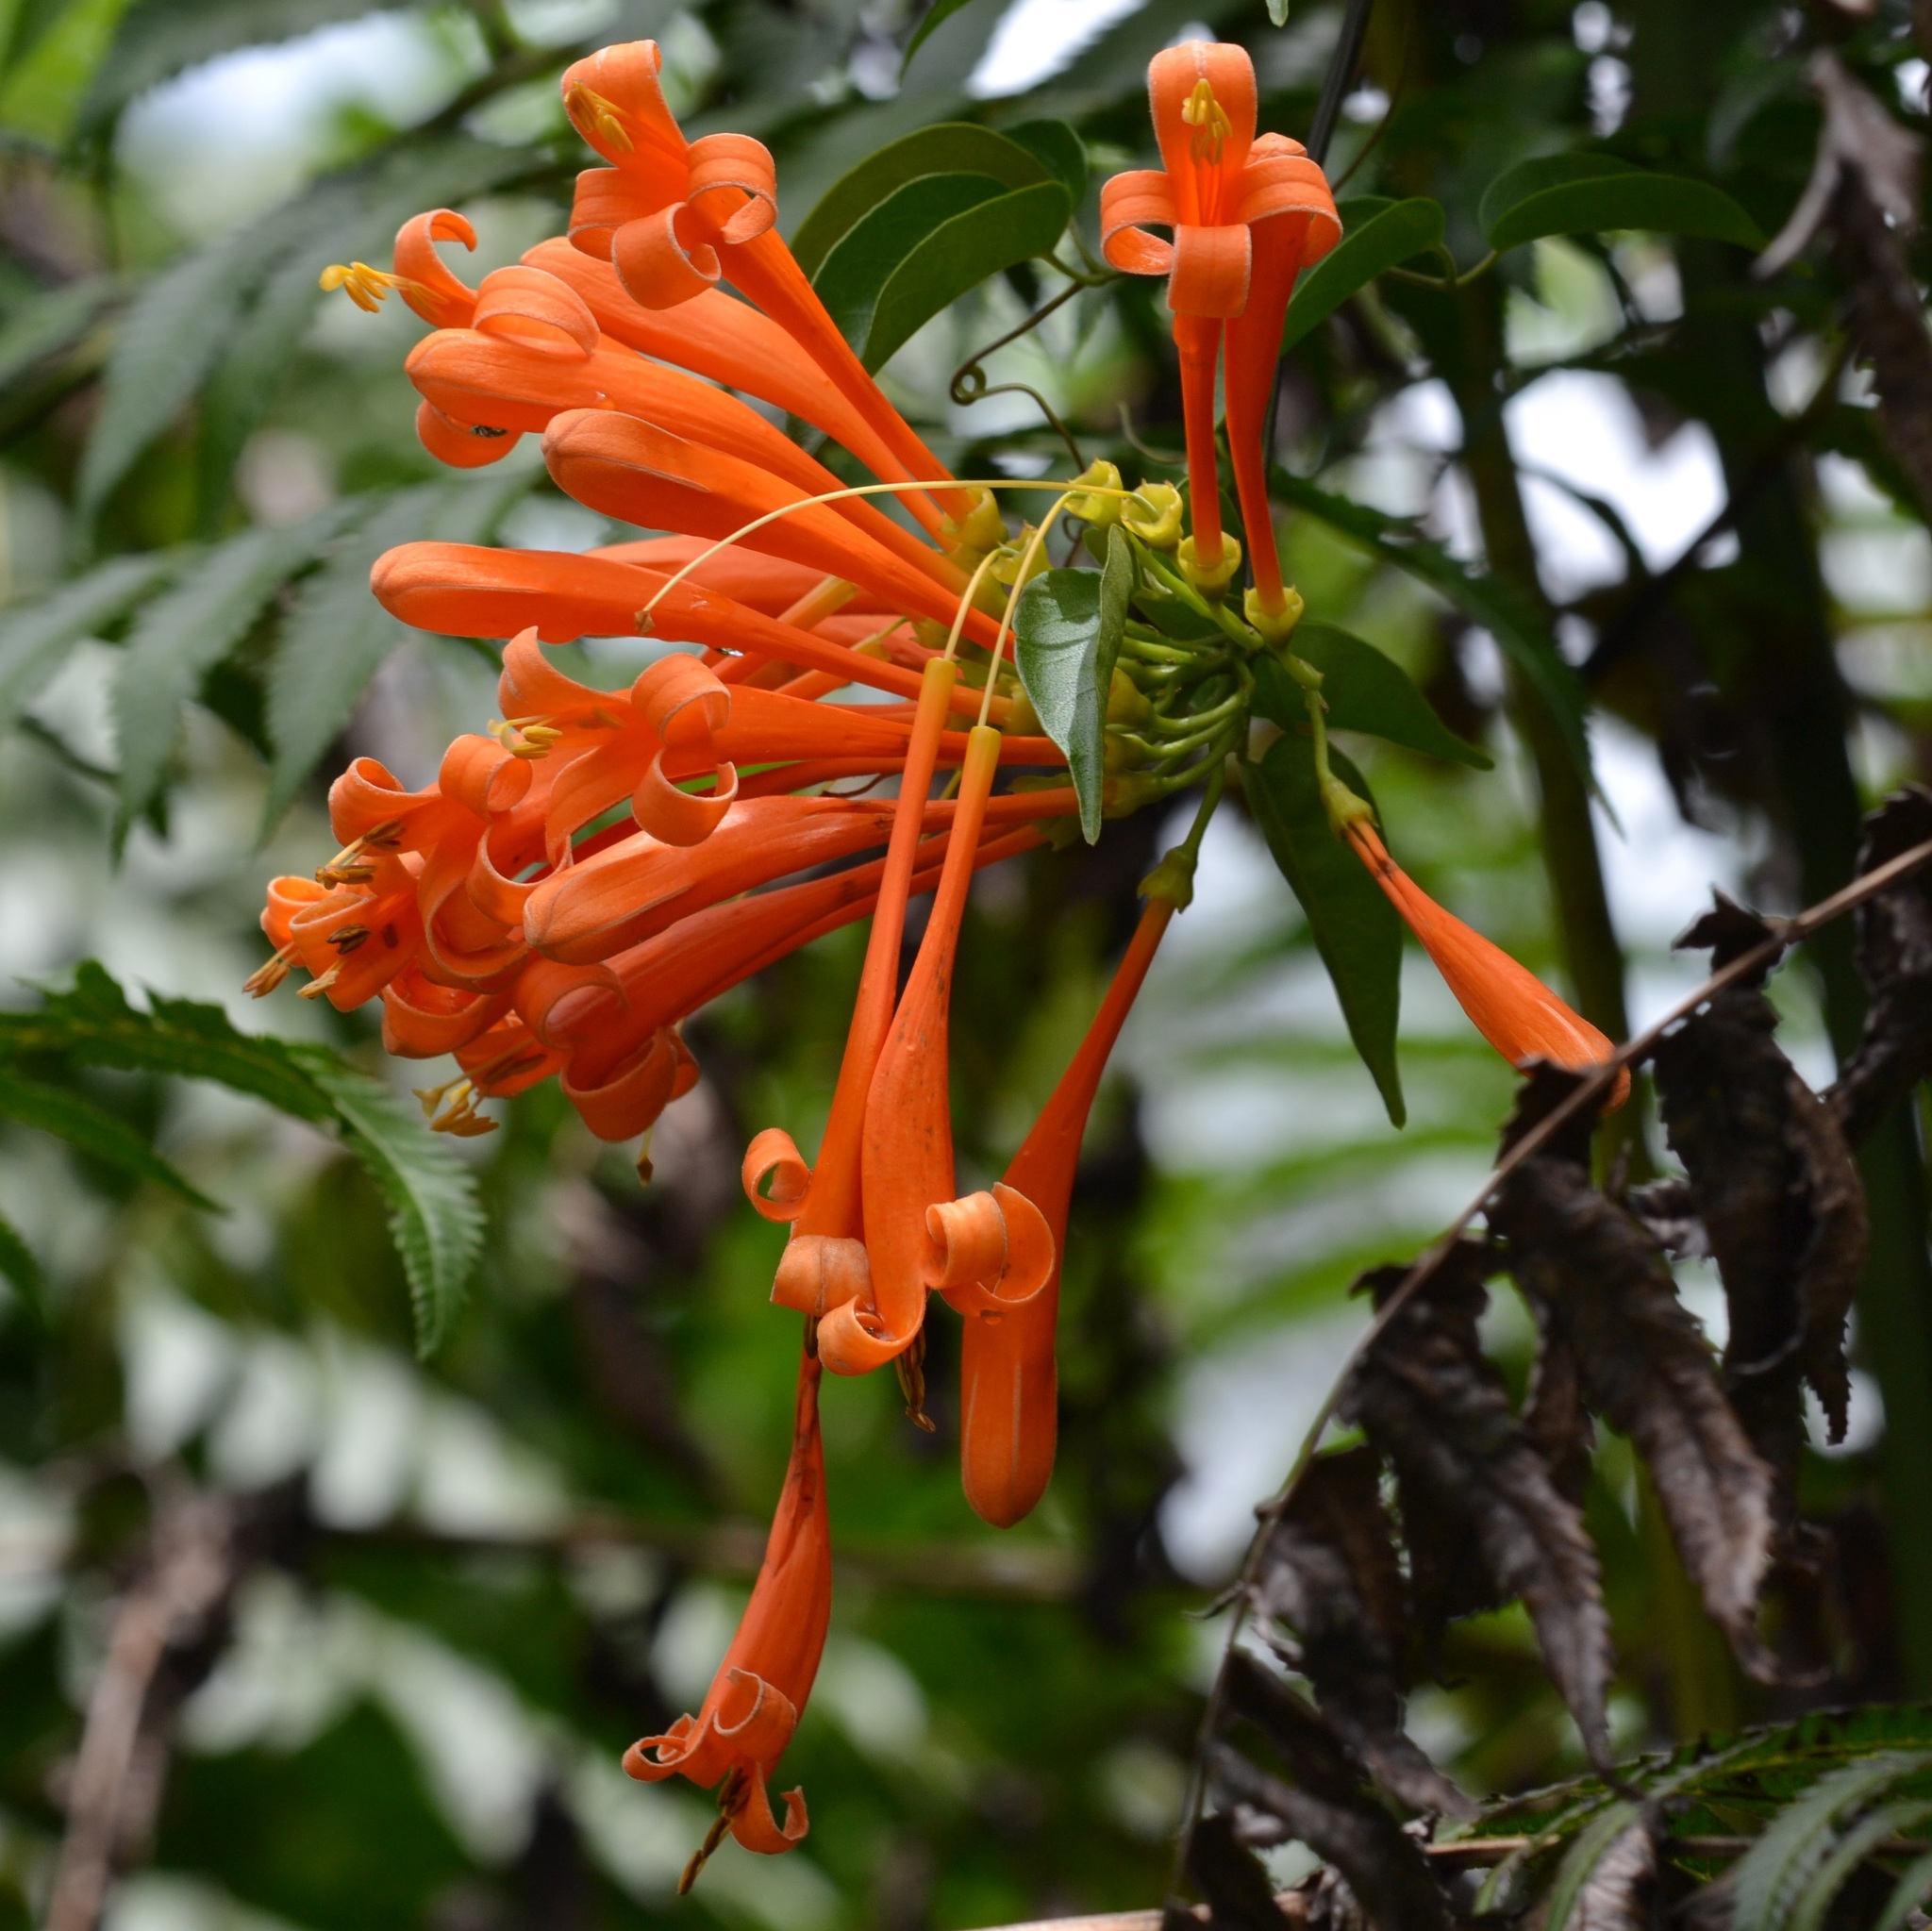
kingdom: Plantae
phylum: Tracheophyta
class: Magnoliopsida
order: Lamiales
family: Bignoniaceae
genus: Pyrostegia
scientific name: Pyrostegia venusta
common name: Flamevine
